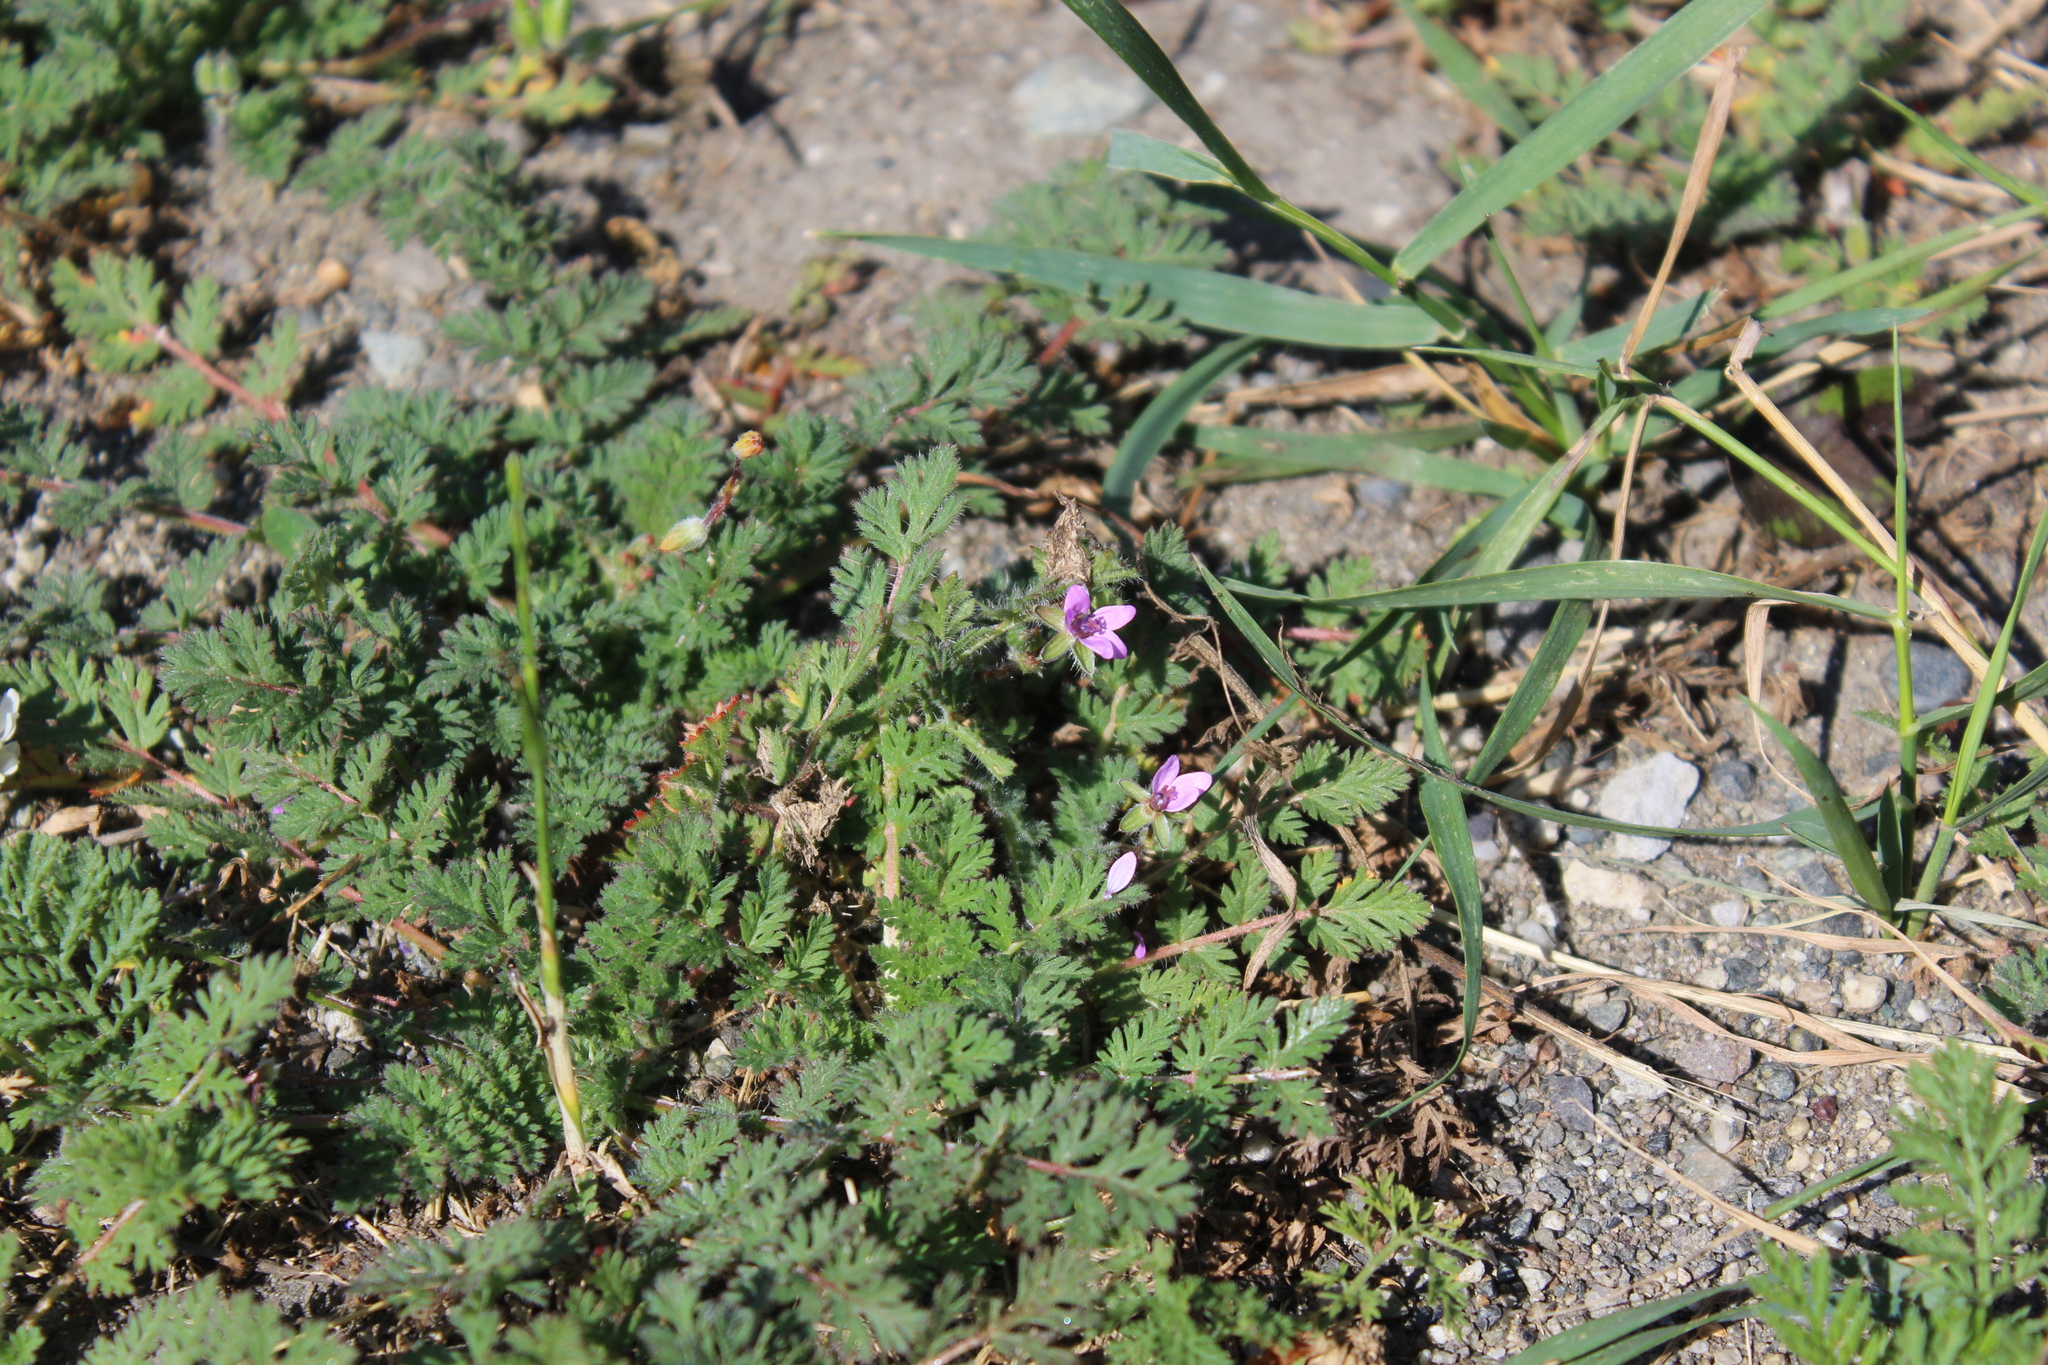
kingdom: Plantae
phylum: Tracheophyta
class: Magnoliopsida
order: Geraniales
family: Geraniaceae
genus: Erodium
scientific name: Erodium cicutarium
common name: Common stork's-bill
